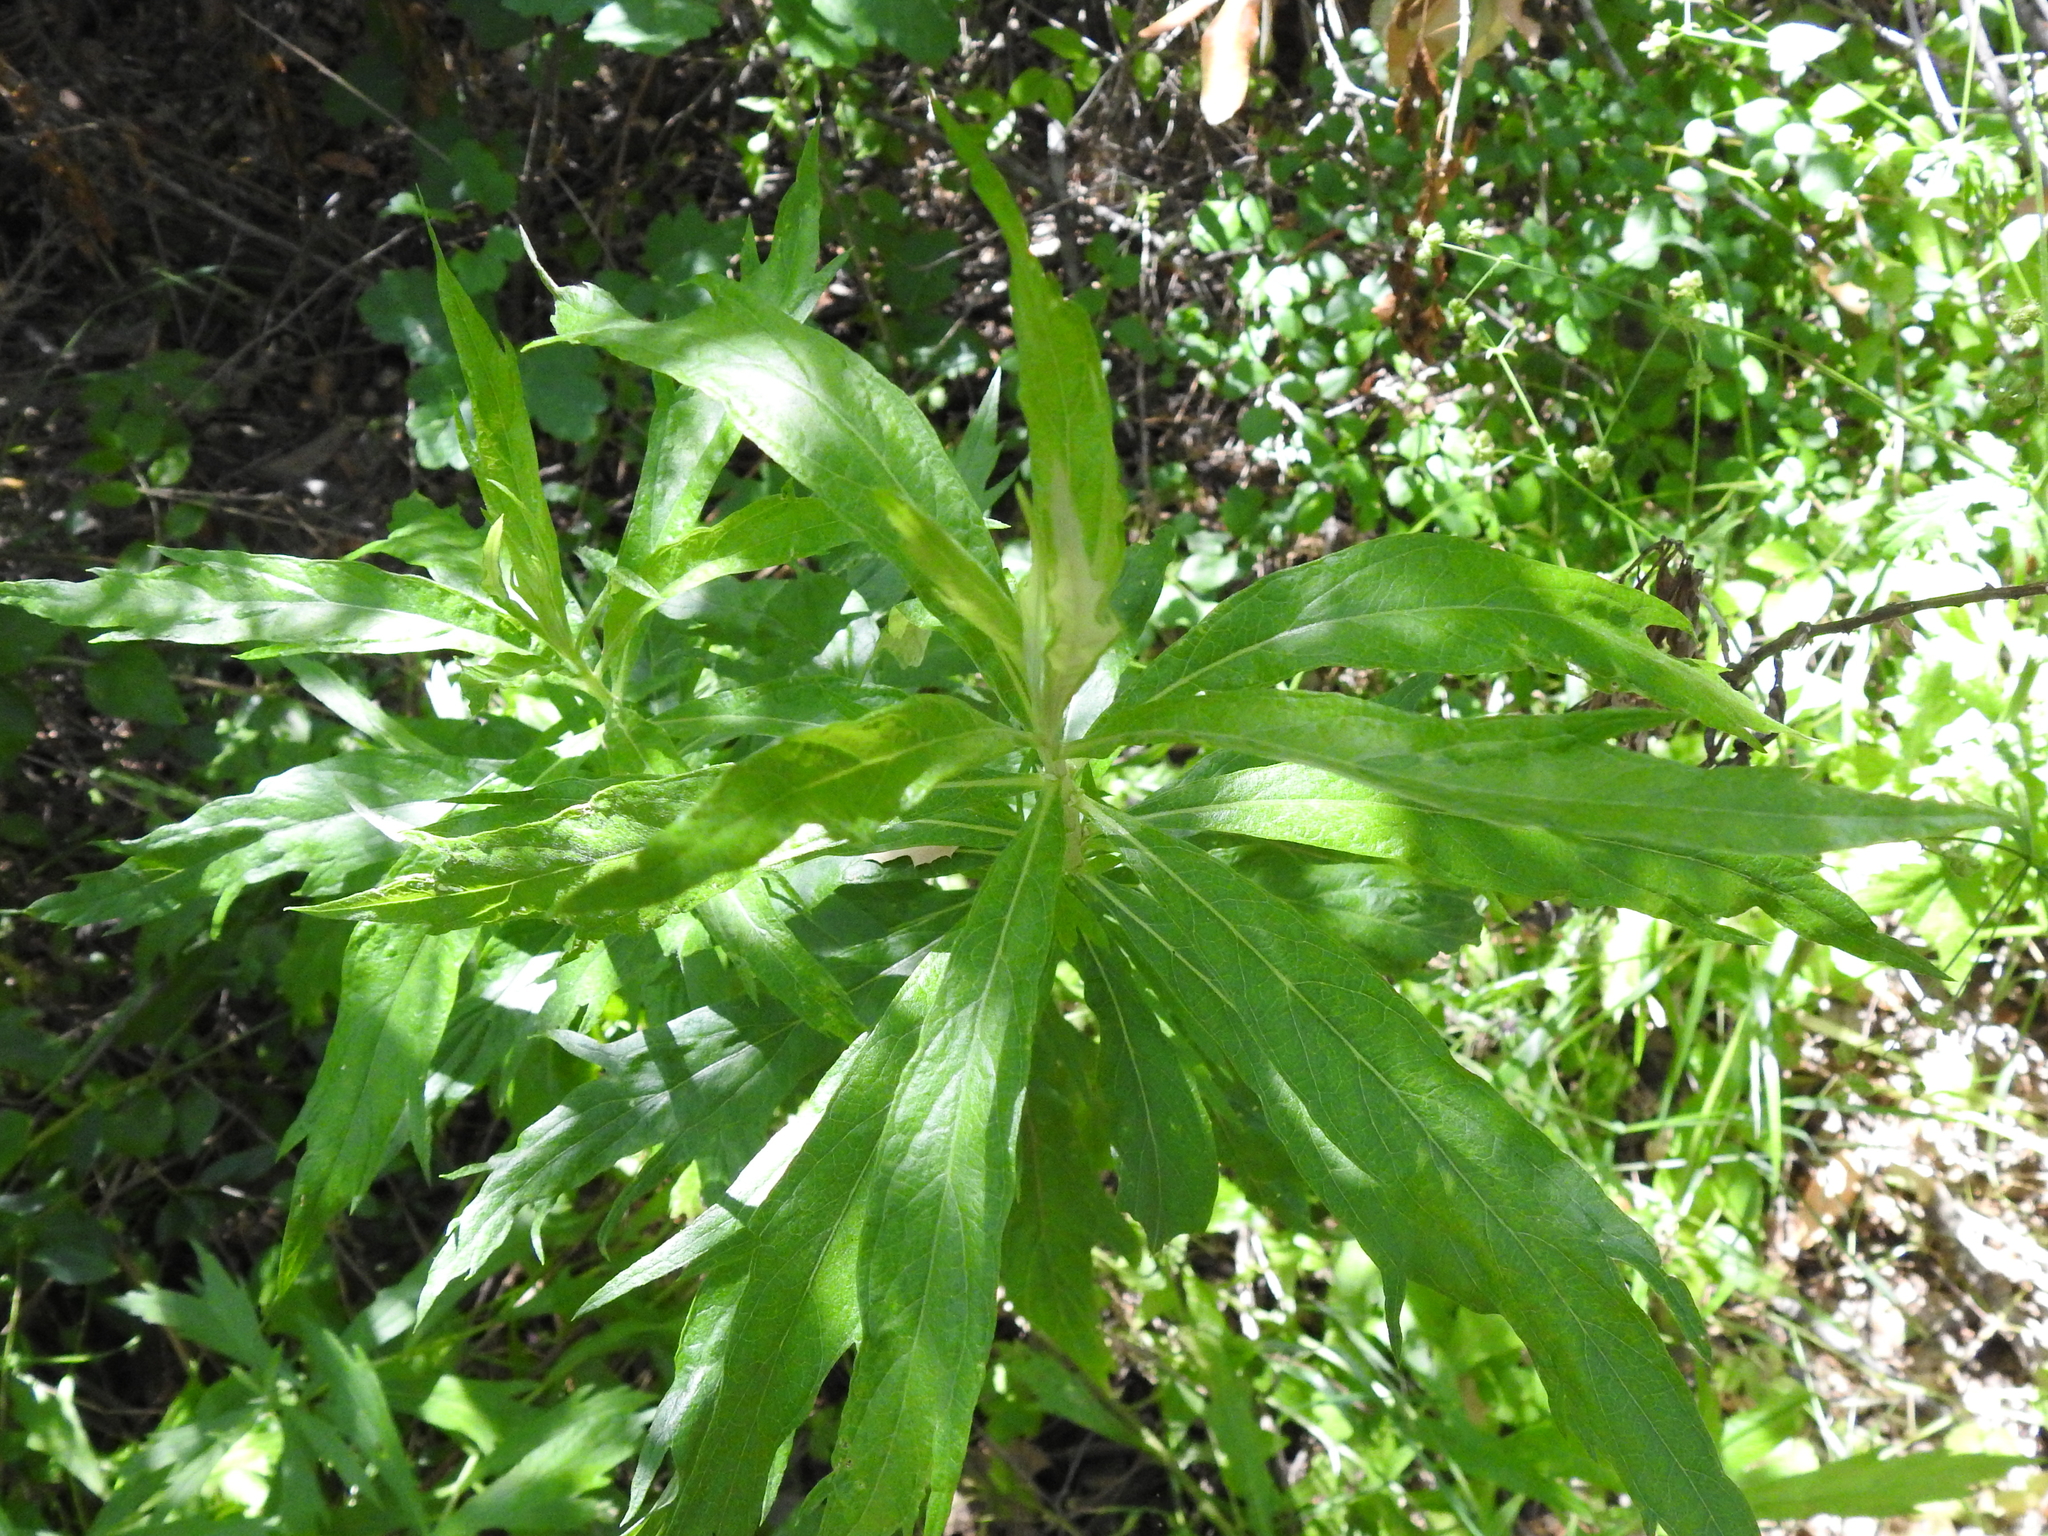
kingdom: Plantae
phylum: Tracheophyta
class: Magnoliopsida
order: Asterales
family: Asteraceae
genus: Artemisia
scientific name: Artemisia douglasiana
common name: Northwest mugwort
